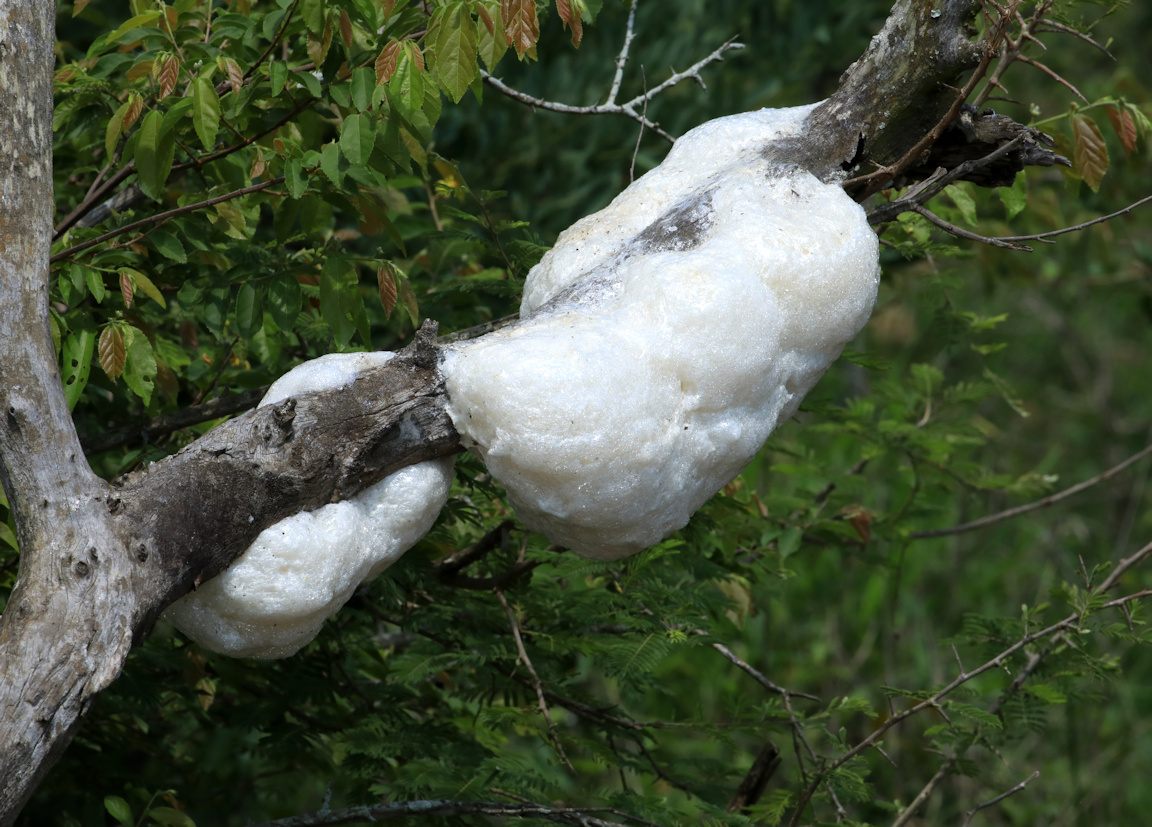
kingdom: Animalia
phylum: Chordata
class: Amphibia
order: Anura
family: Rhacophoridae
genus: Chiromantis
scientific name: Chiromantis xerampelina
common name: African gray treefrog
